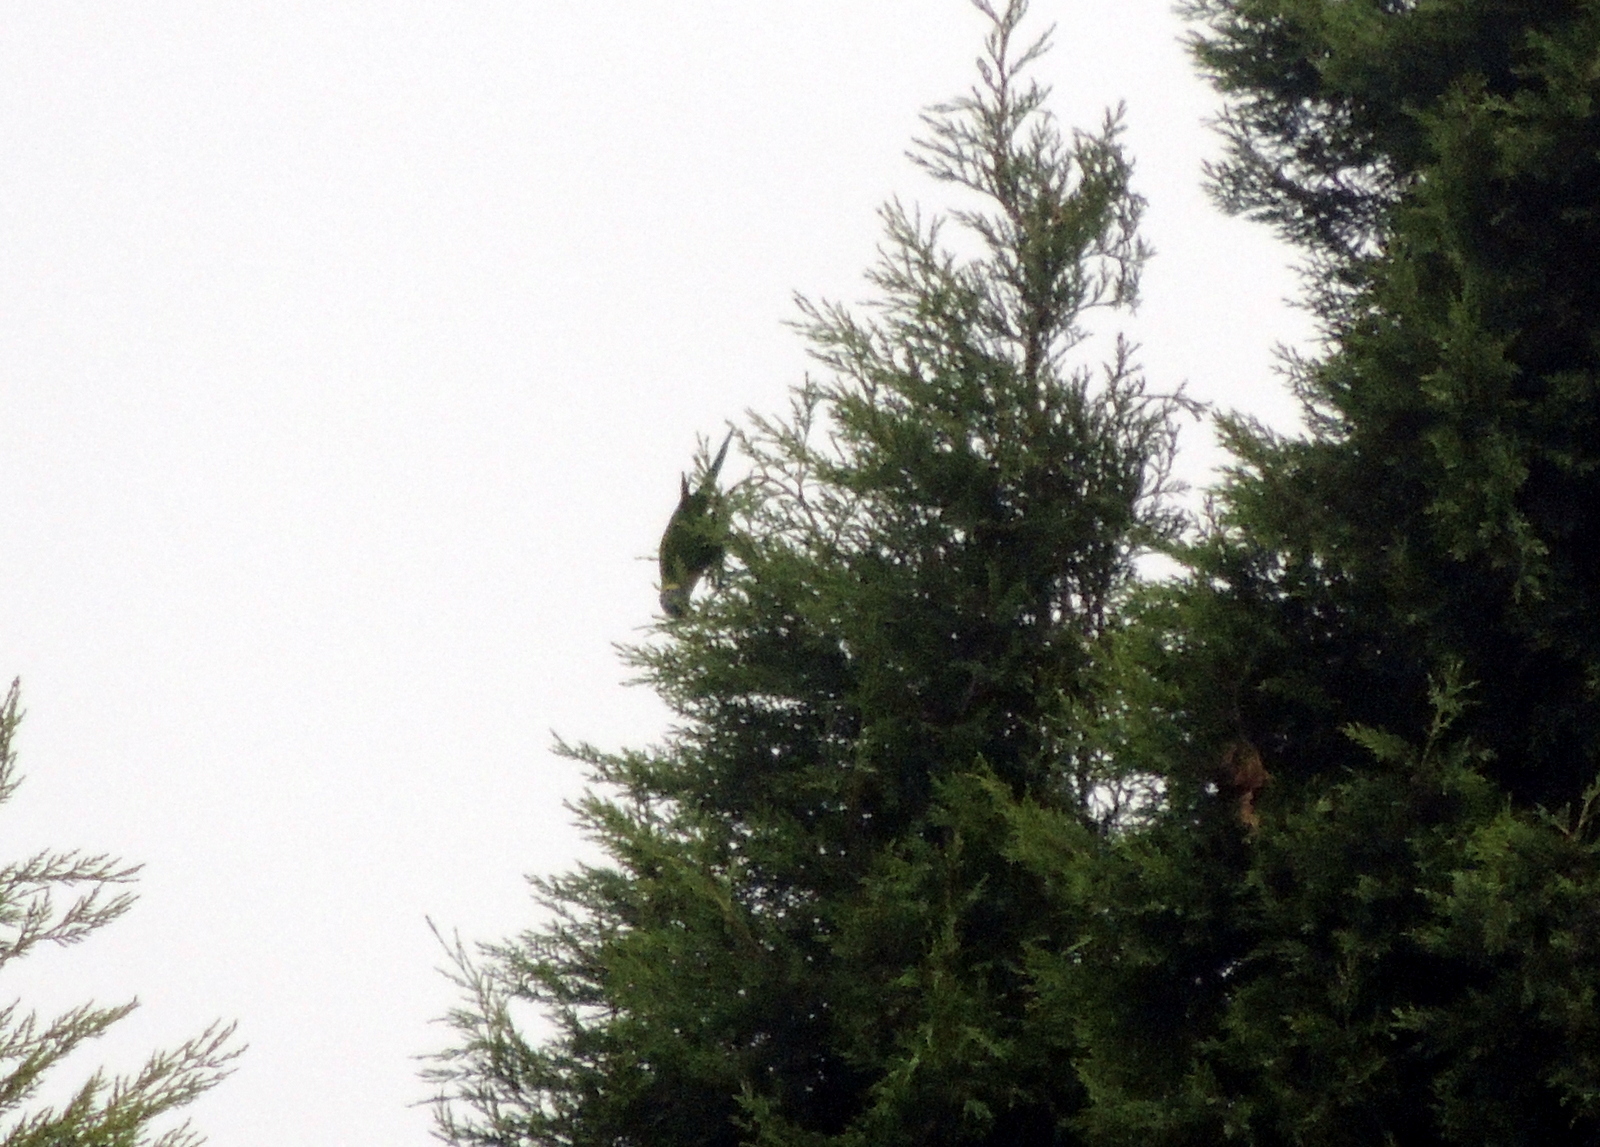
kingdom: Animalia
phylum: Chordata
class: Aves
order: Psittaciformes
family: Psittacidae
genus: Trichoglossus
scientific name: Trichoglossus haematodus
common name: Coconut lorikeet
